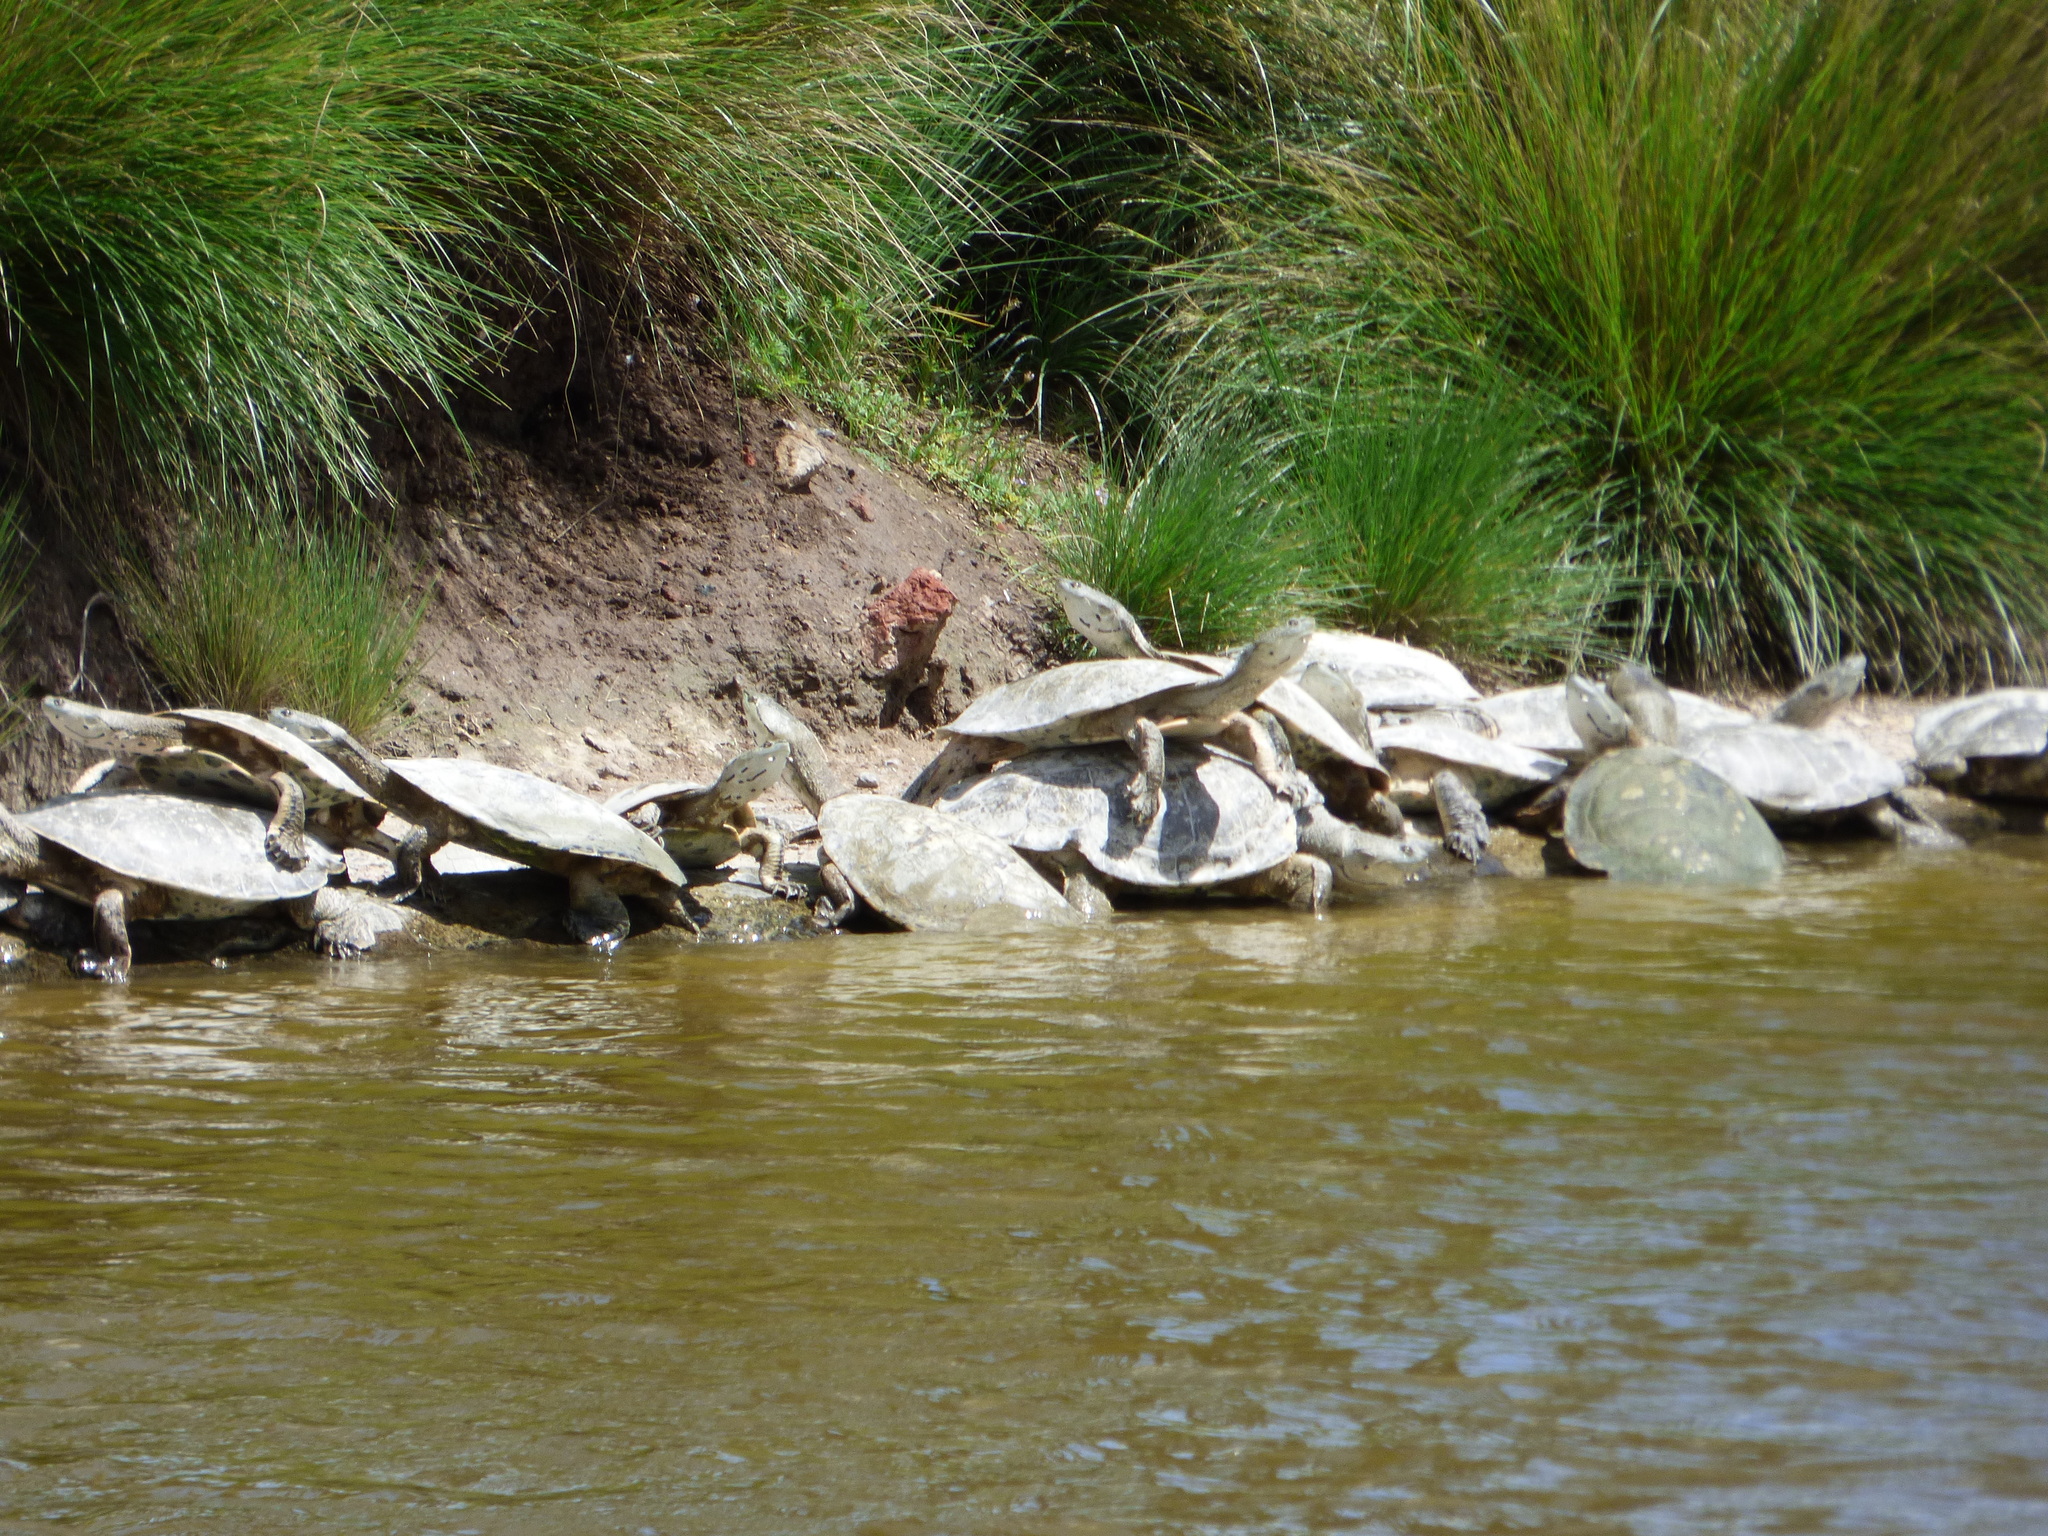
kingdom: Animalia
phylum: Chordata
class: Testudines
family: Chelidae
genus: Phrynops
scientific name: Phrynops hilarii
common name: Side-necked turtle of saint hillaire
